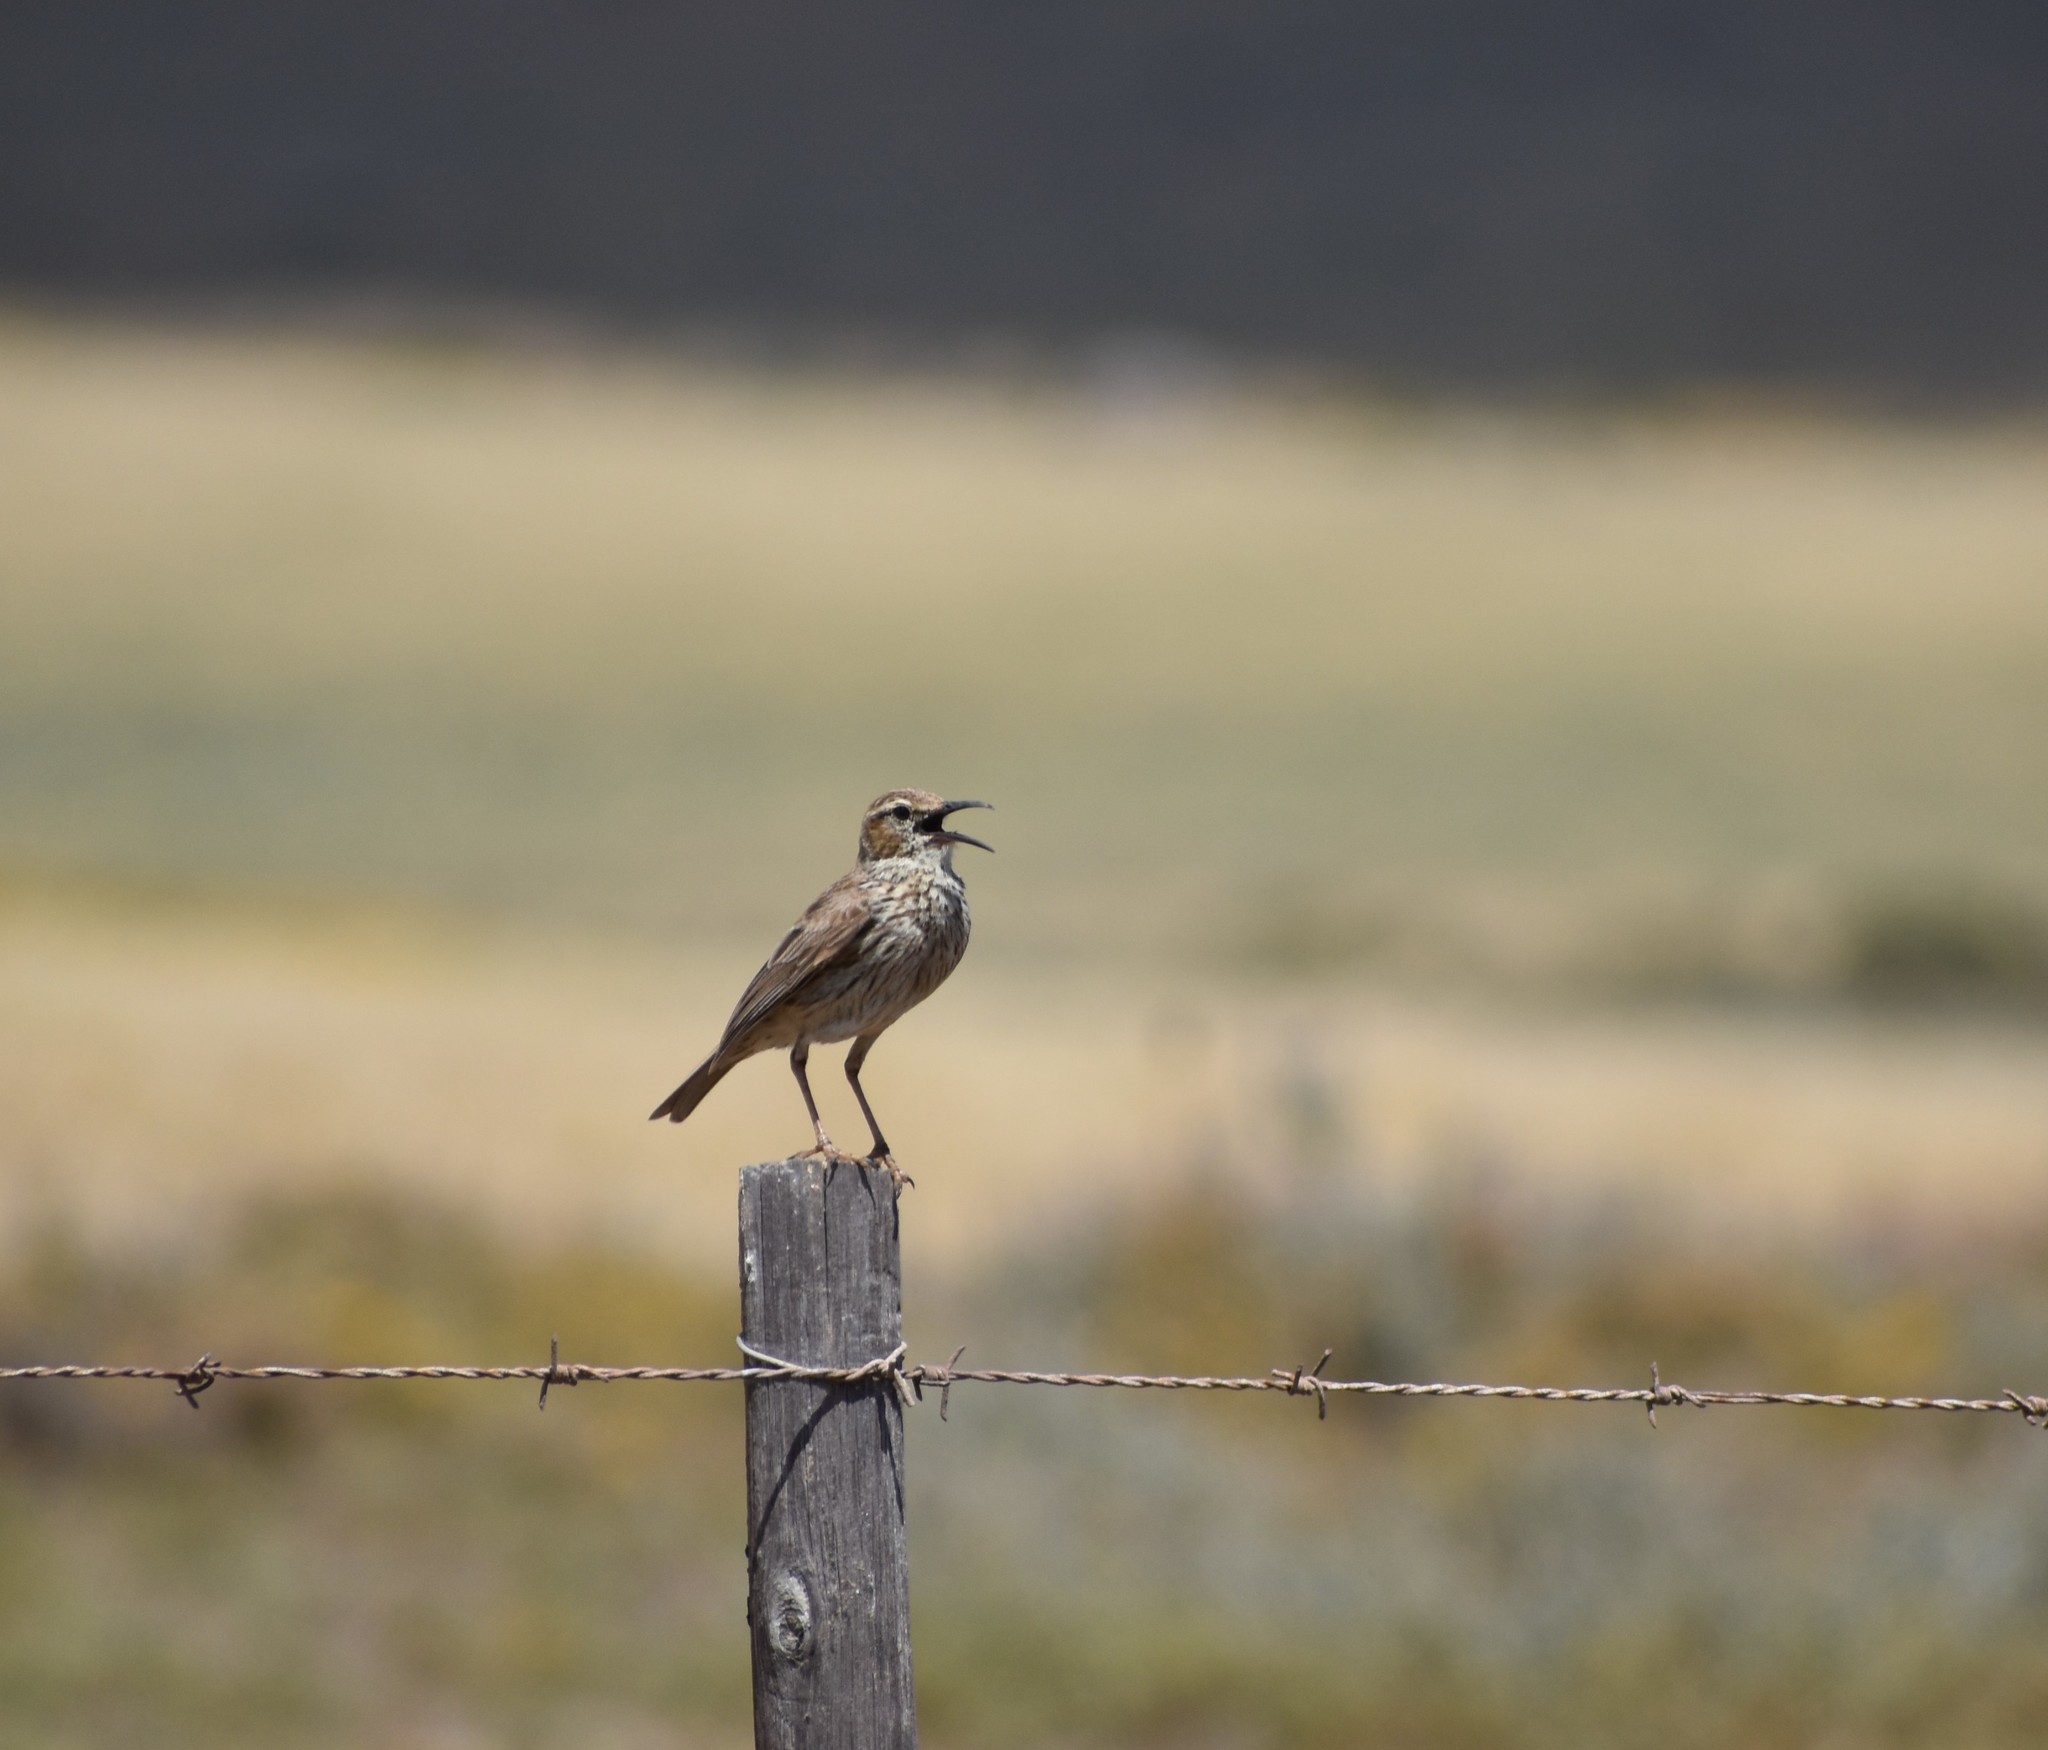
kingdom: Animalia
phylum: Chordata
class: Aves
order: Passeriformes
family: Alaudidae
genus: Certhilauda
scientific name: Certhilauda curvirostris
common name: Cape long-billed lark
